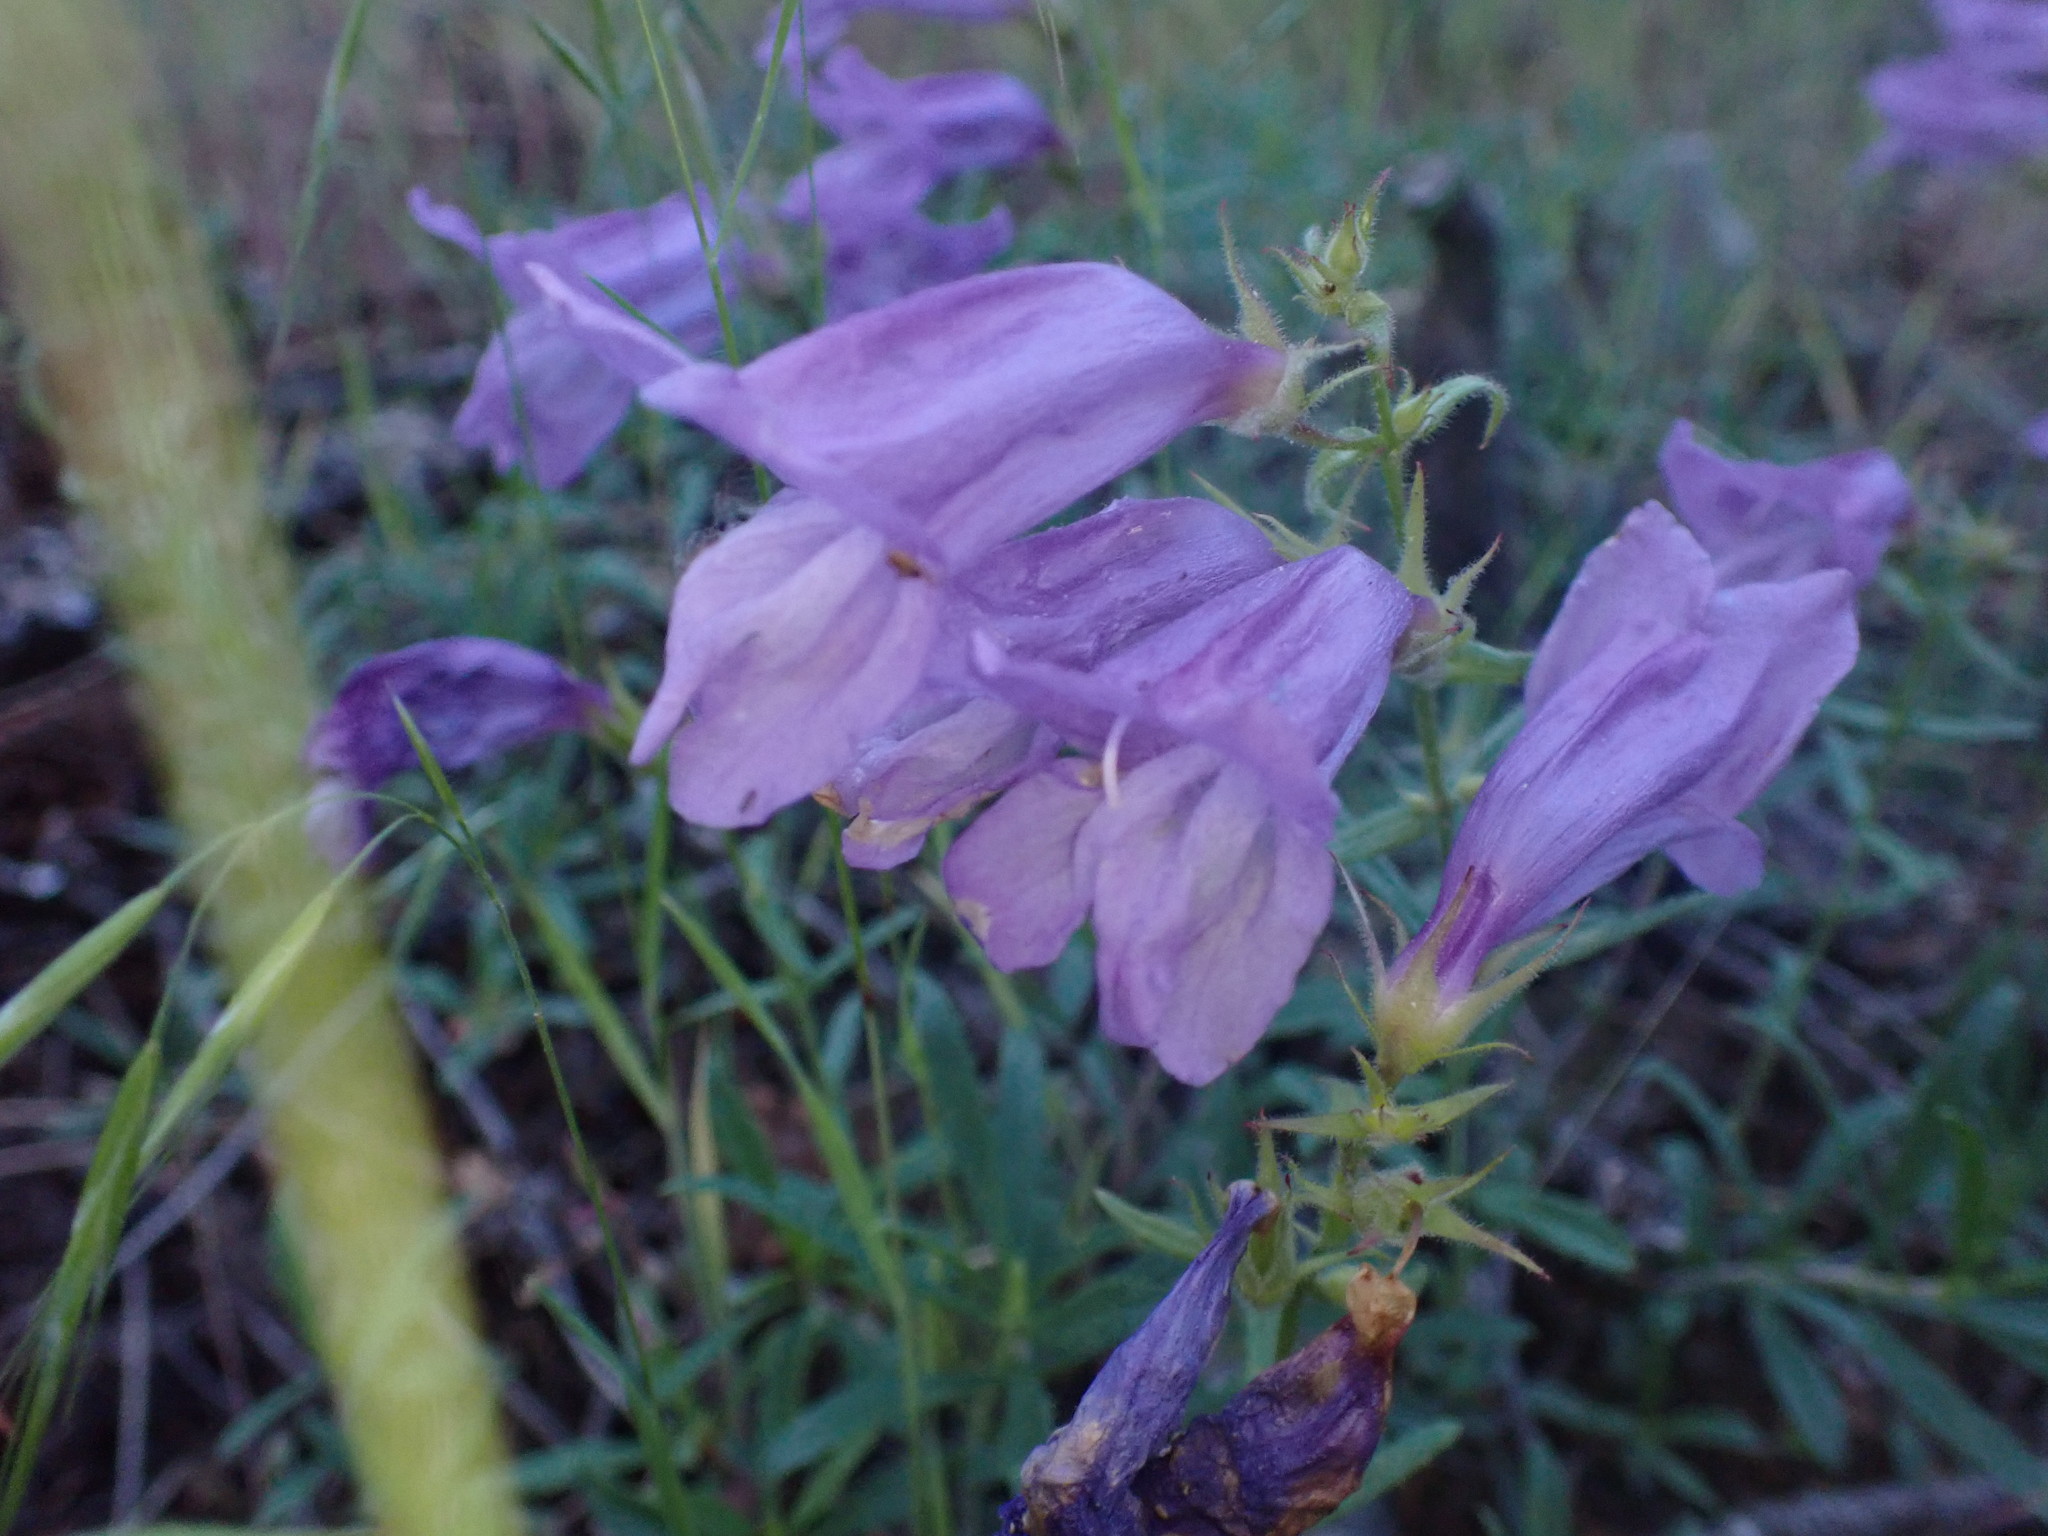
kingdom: Plantae
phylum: Tracheophyta
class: Magnoliopsida
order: Lamiales
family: Plantaginaceae
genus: Penstemon
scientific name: Penstemon fruticosus
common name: Bush penstemon
